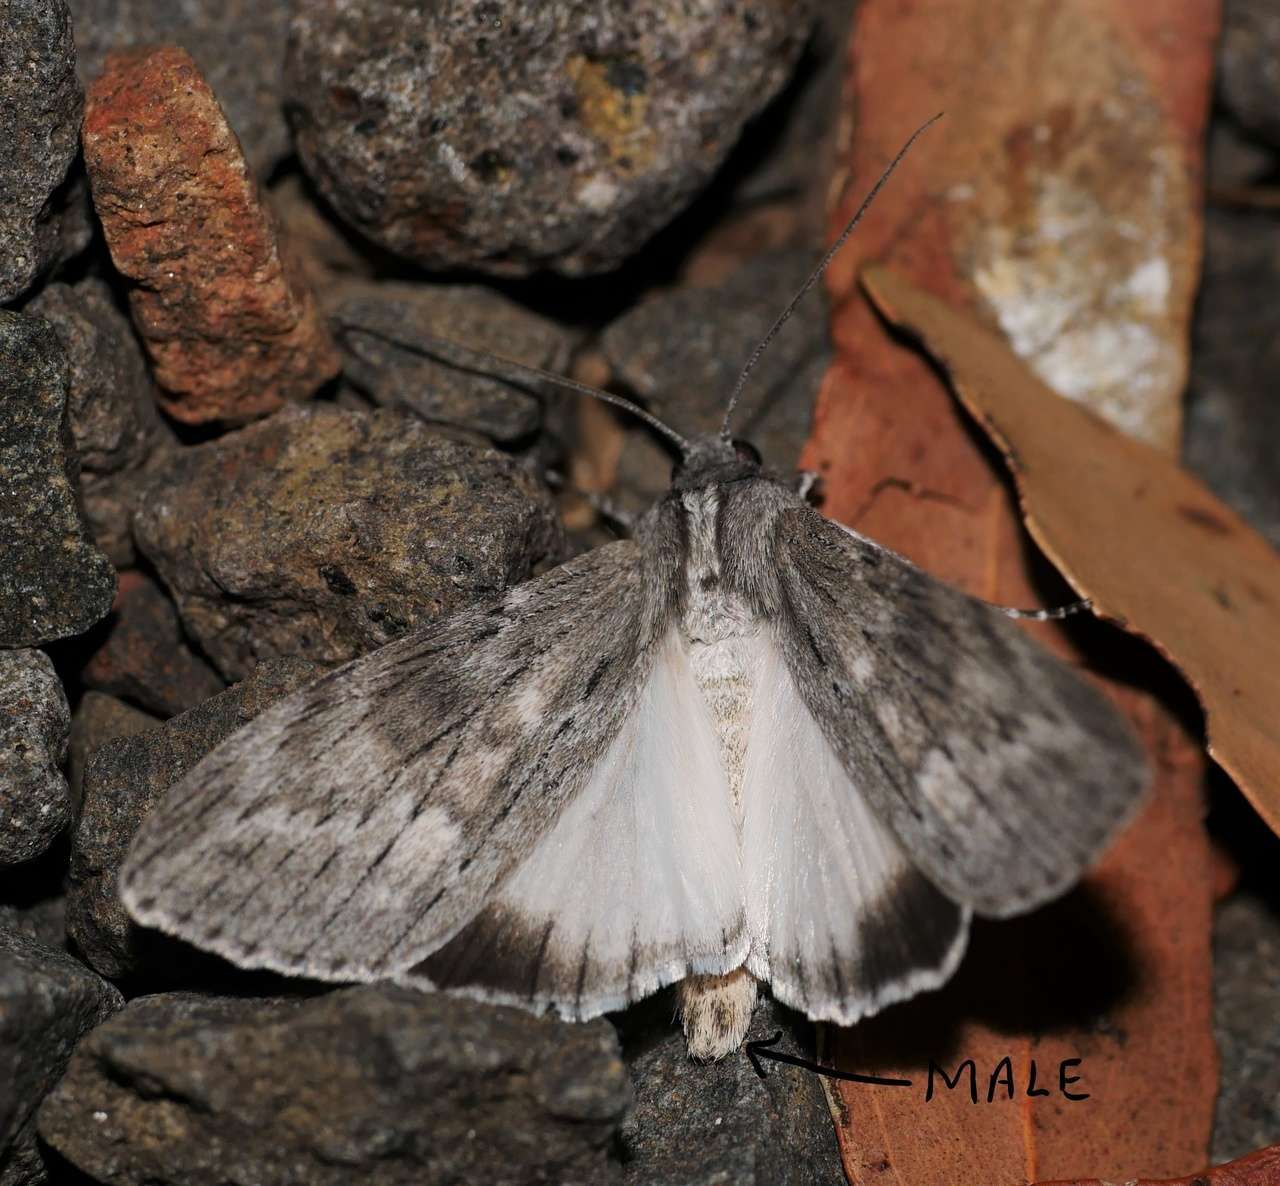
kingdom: Animalia
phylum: Arthropoda
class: Insecta
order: Lepidoptera
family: Geometridae
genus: Capusa
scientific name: Capusa senilis
